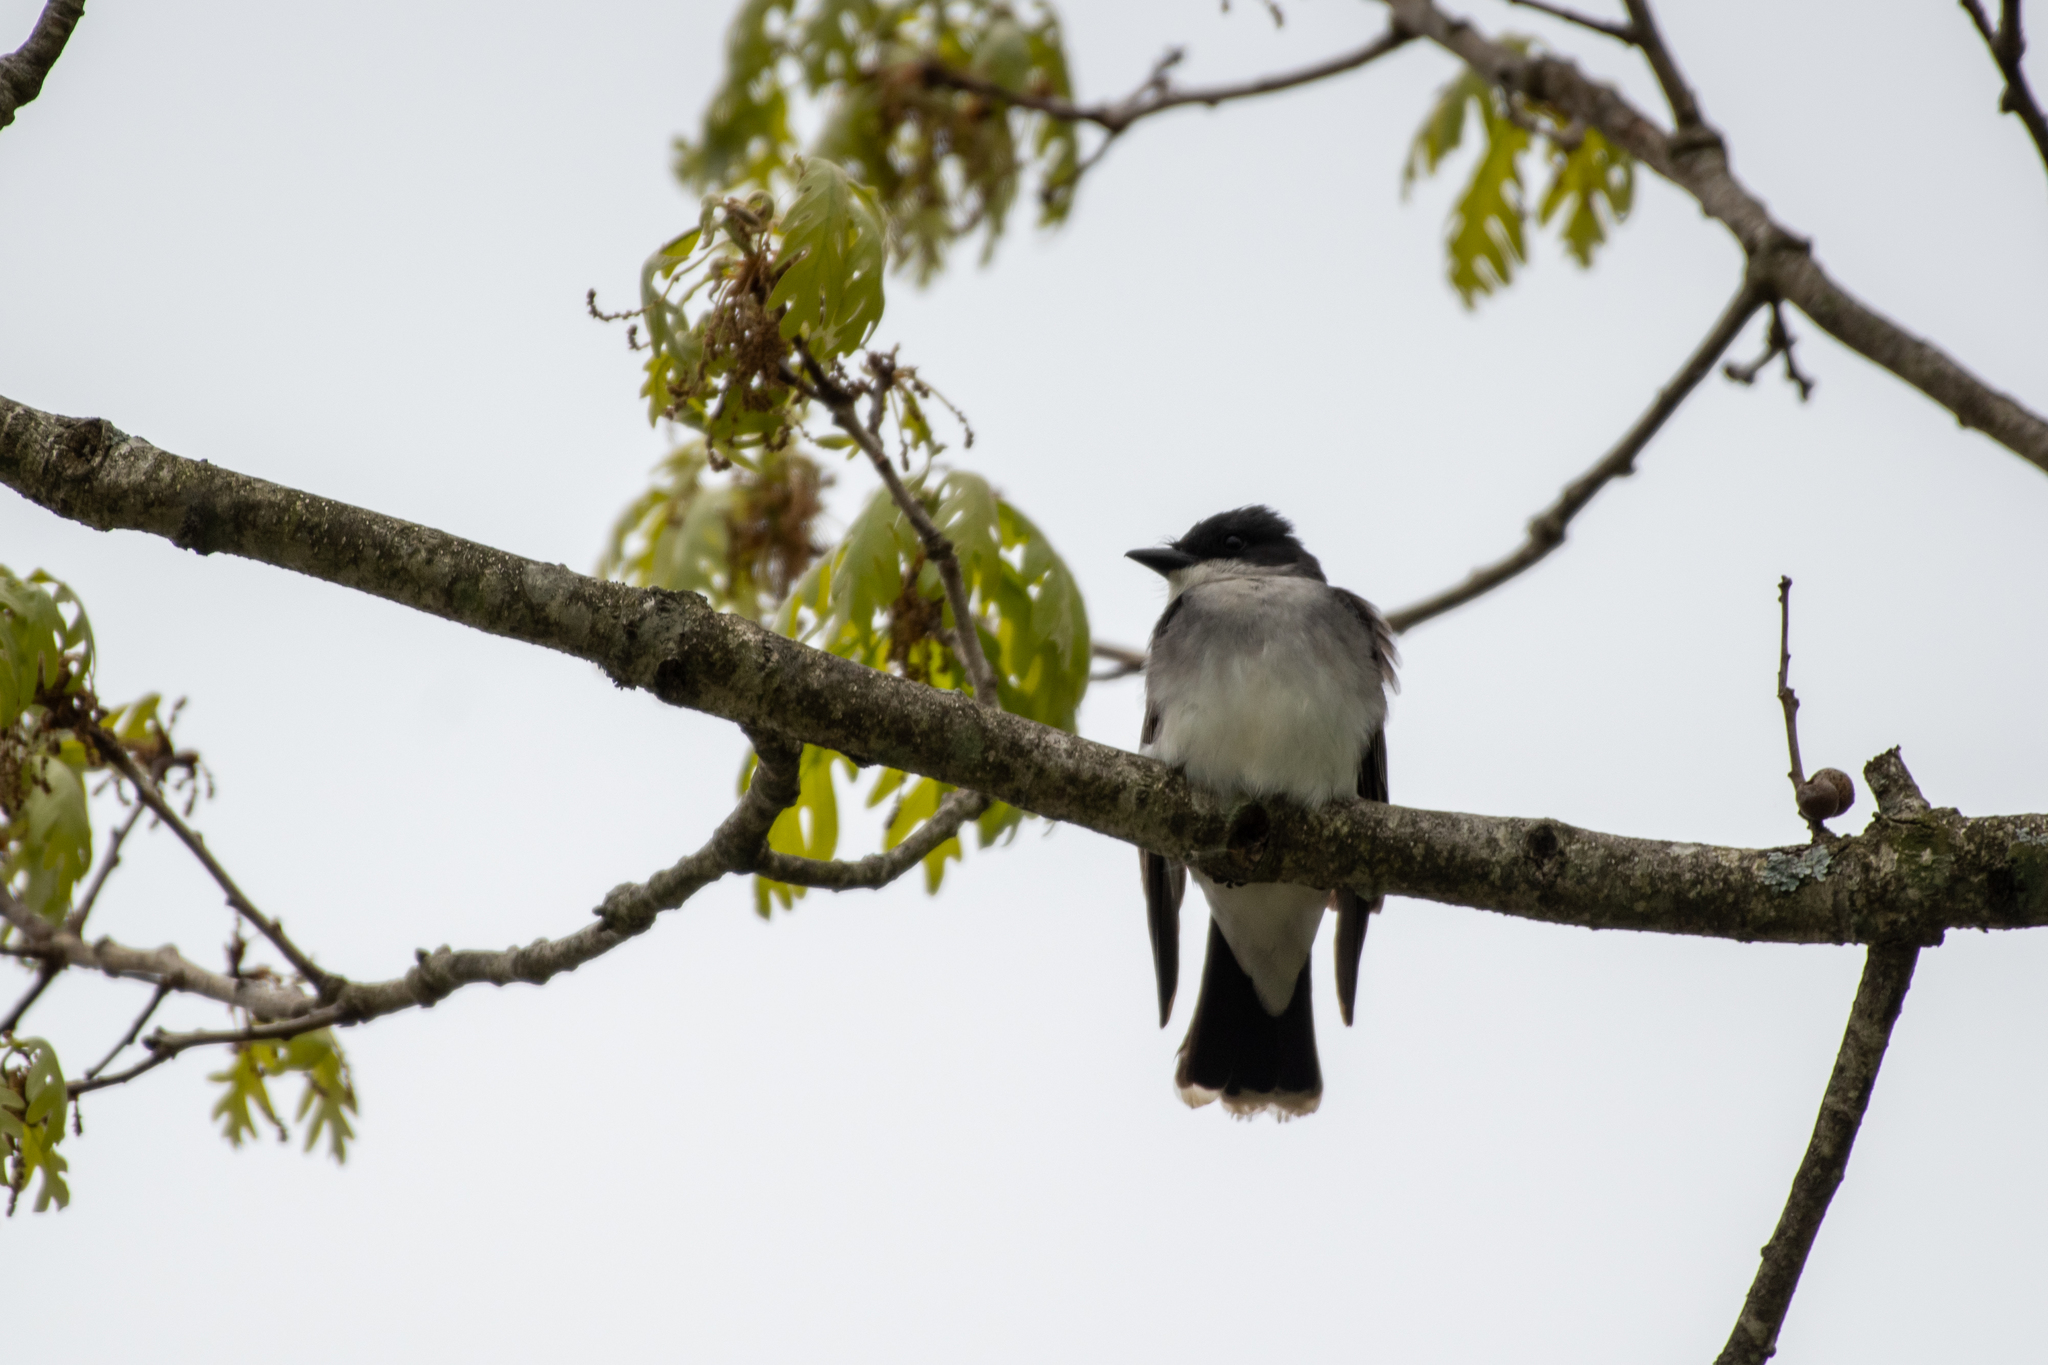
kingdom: Animalia
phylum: Chordata
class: Aves
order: Passeriformes
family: Tyrannidae
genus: Tyrannus
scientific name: Tyrannus tyrannus
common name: Eastern kingbird
